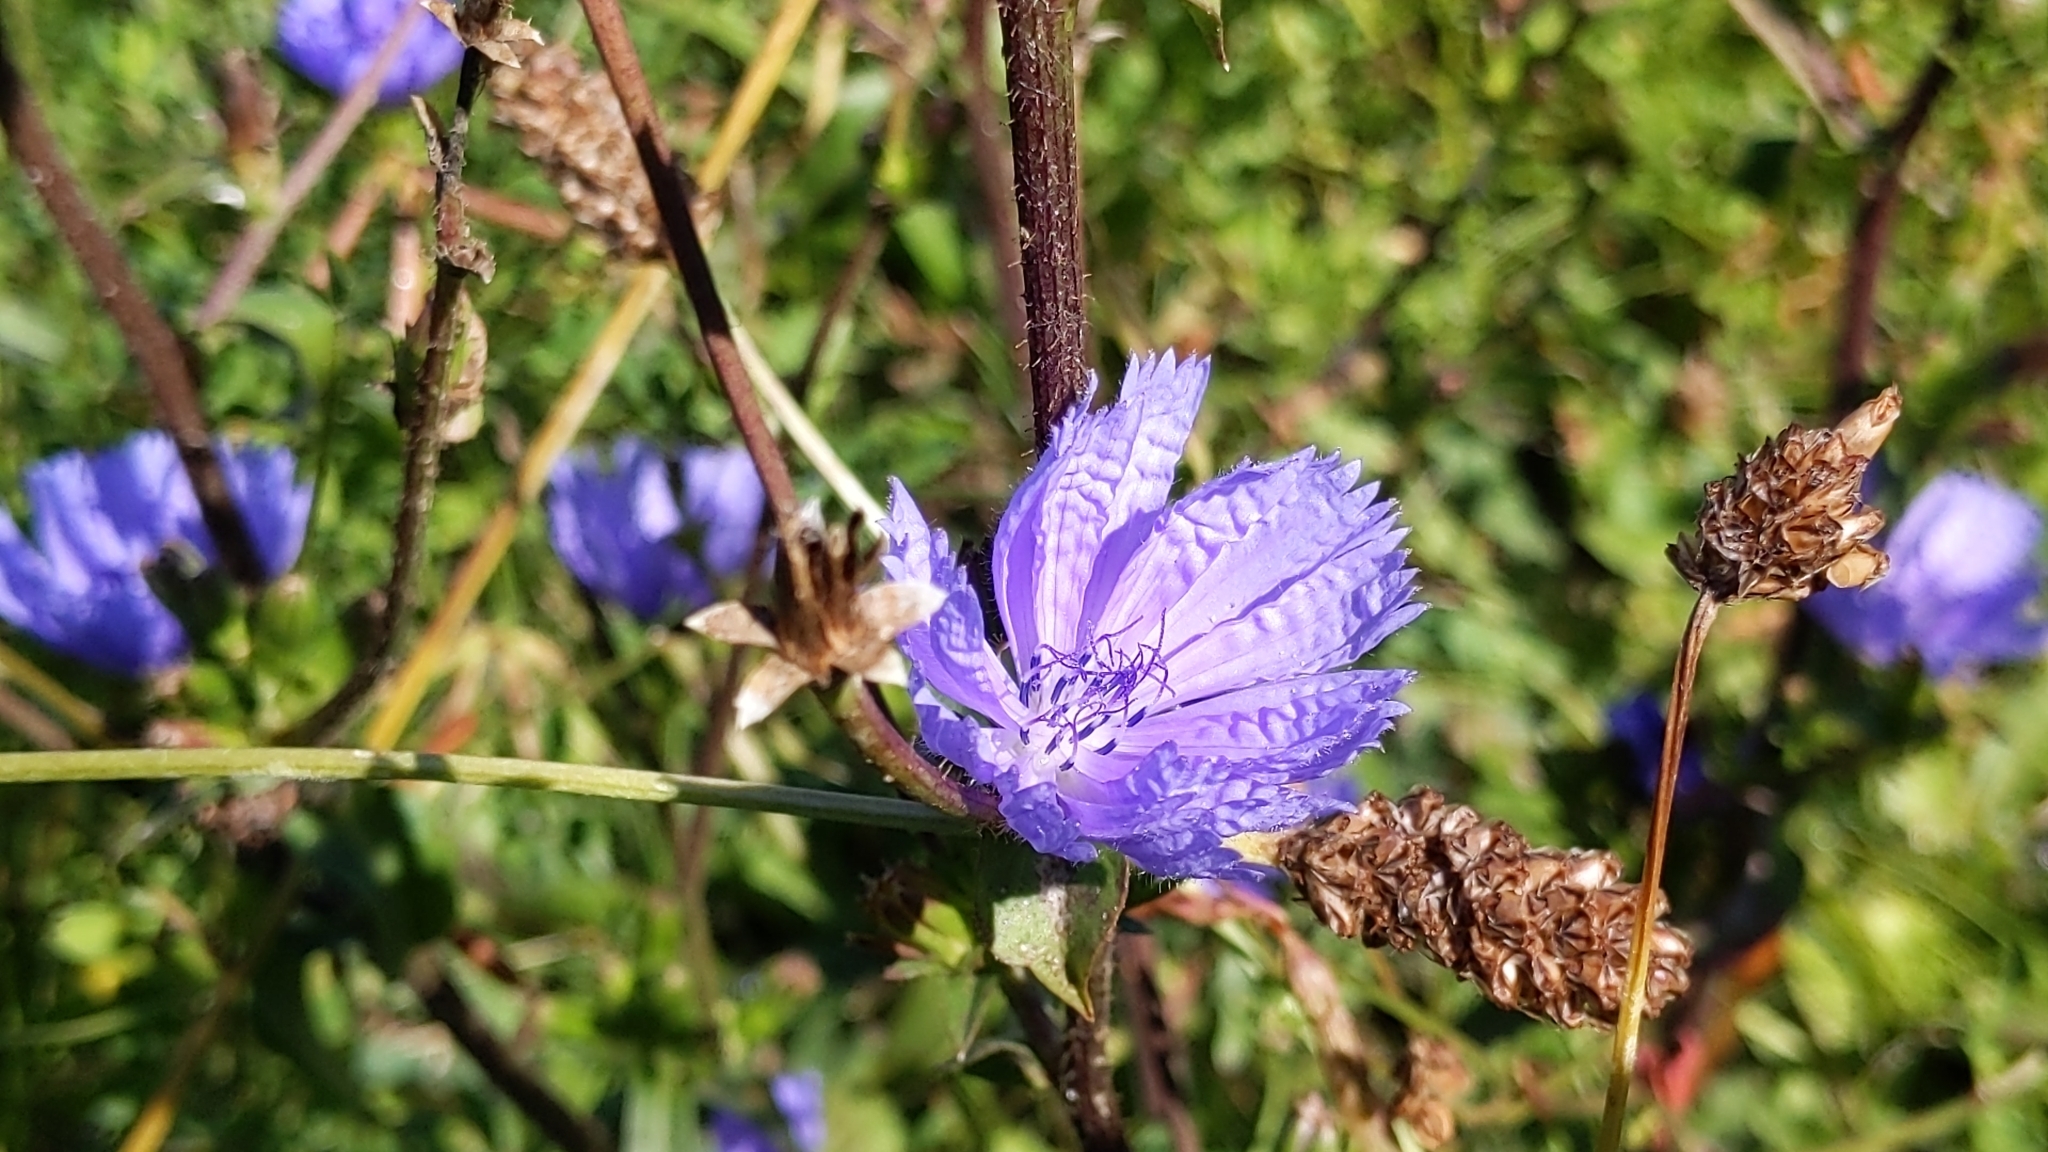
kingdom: Plantae
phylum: Tracheophyta
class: Magnoliopsida
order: Asterales
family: Asteraceae
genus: Cichorium
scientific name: Cichorium intybus
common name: Chicory
